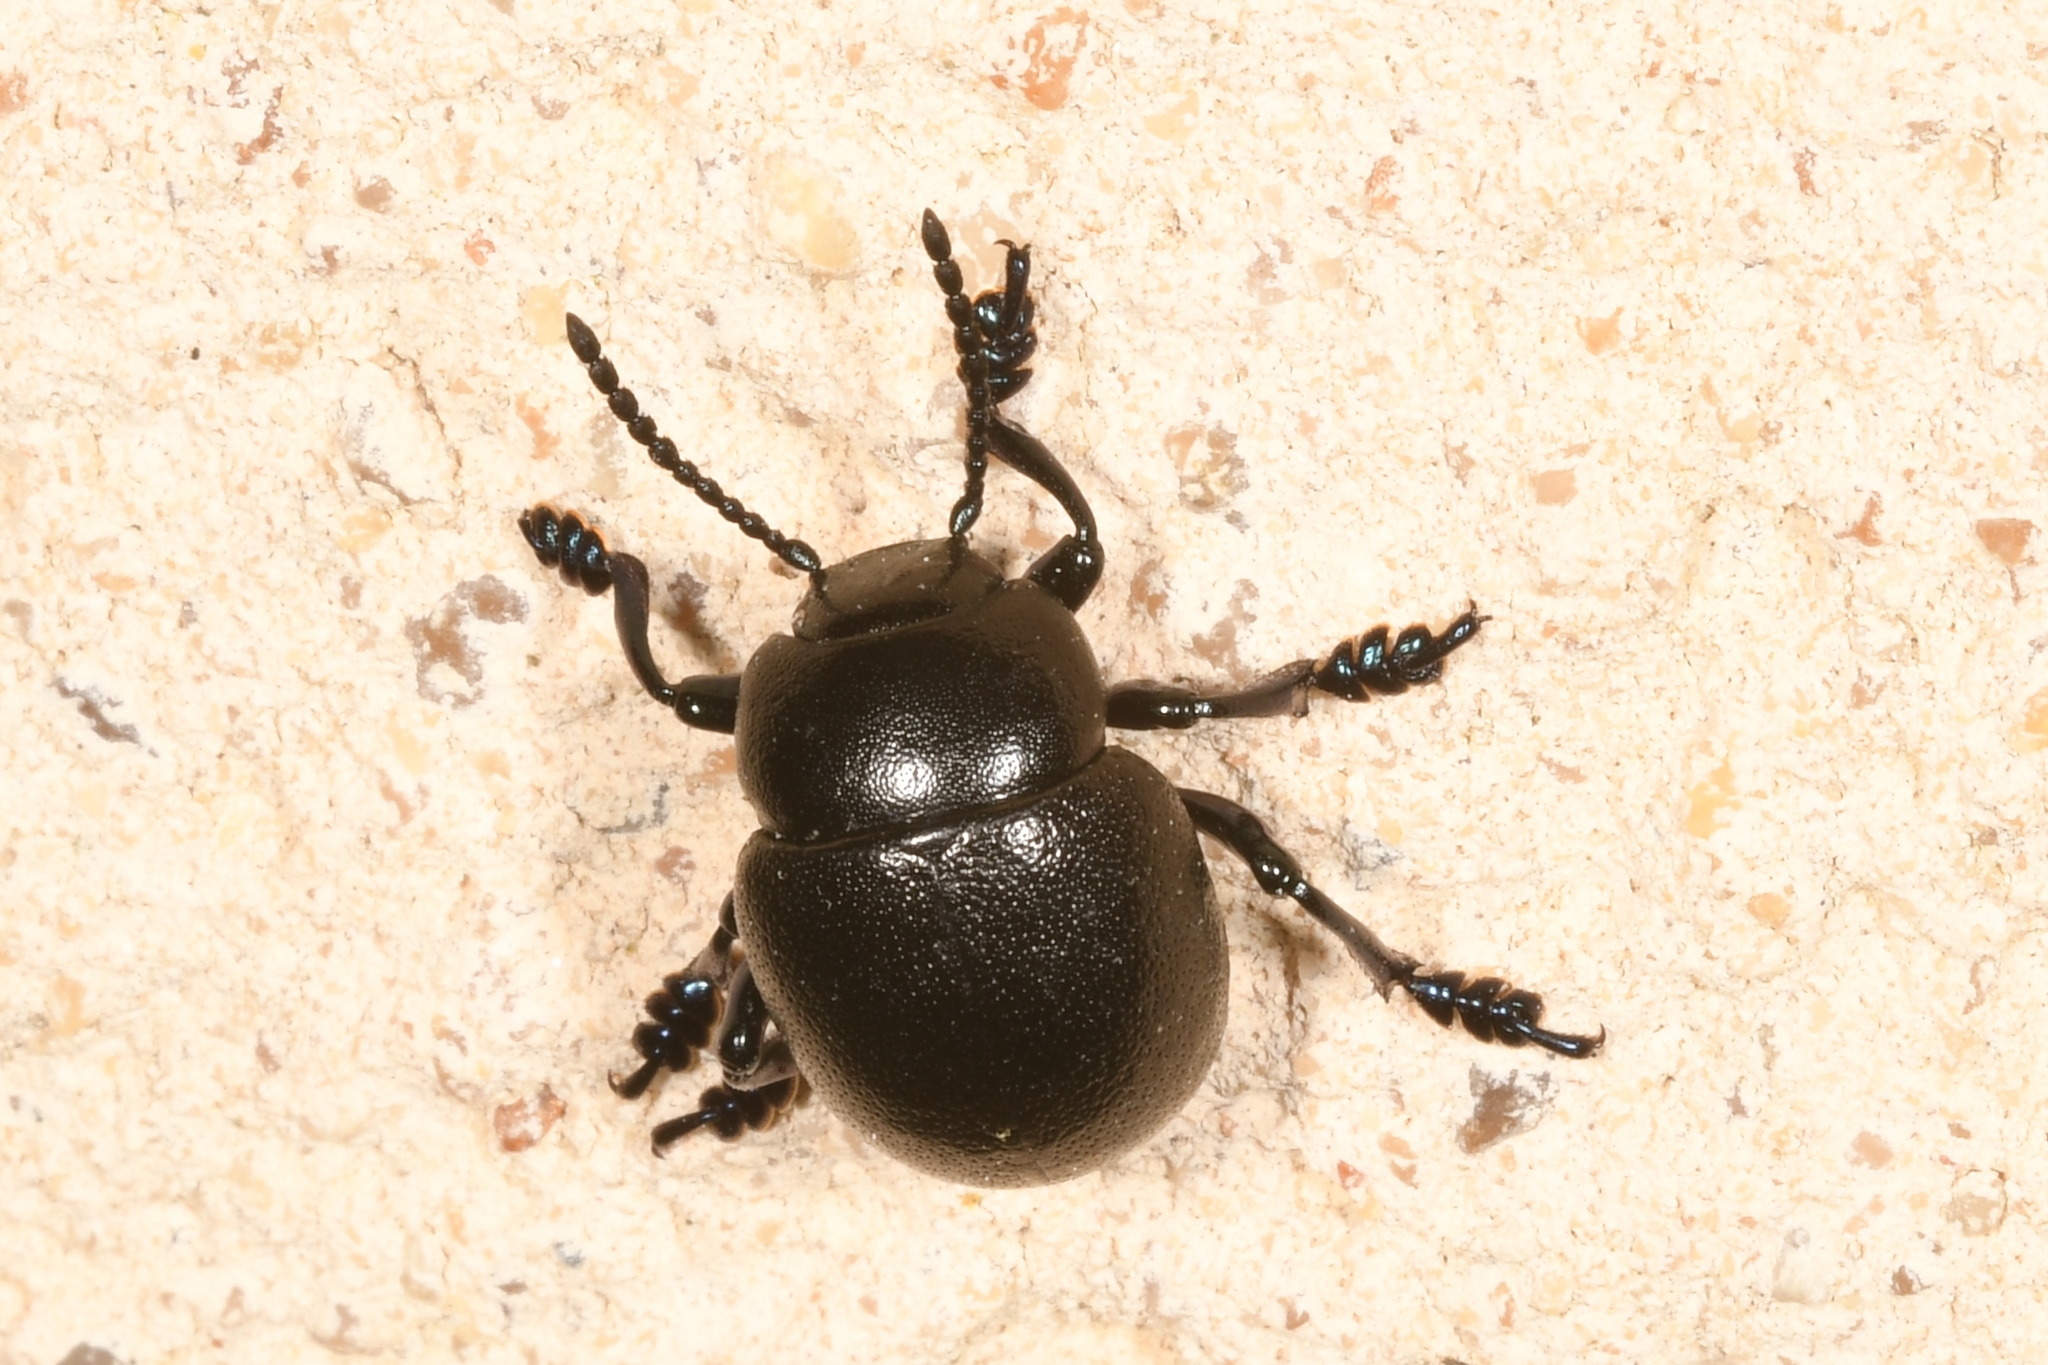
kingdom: Animalia
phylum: Arthropoda
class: Insecta
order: Coleoptera
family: Chrysomelidae
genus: Timarcha
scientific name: Timarcha goettingensis
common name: Small bloody-nosed beetle
